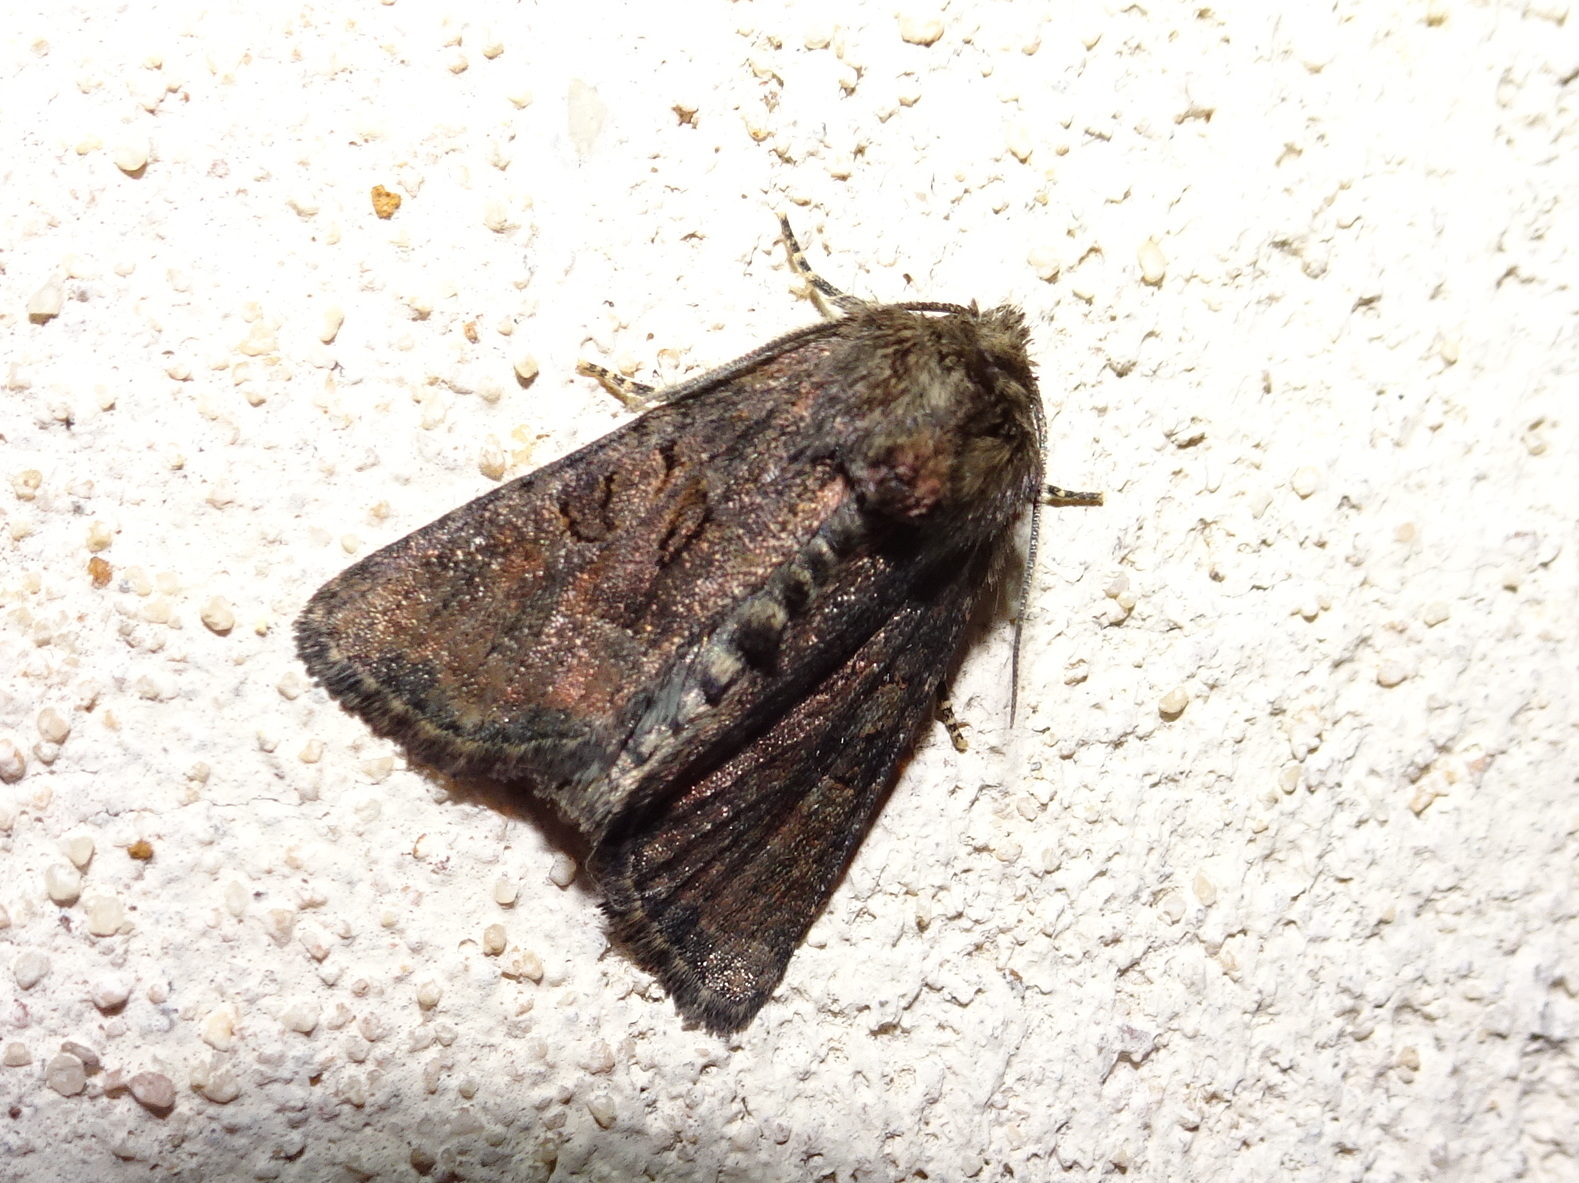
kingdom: Animalia
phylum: Arthropoda
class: Insecta
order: Lepidoptera
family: Noctuidae
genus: Oligia
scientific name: Oligia latruncula
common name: Tawny marbled minor
